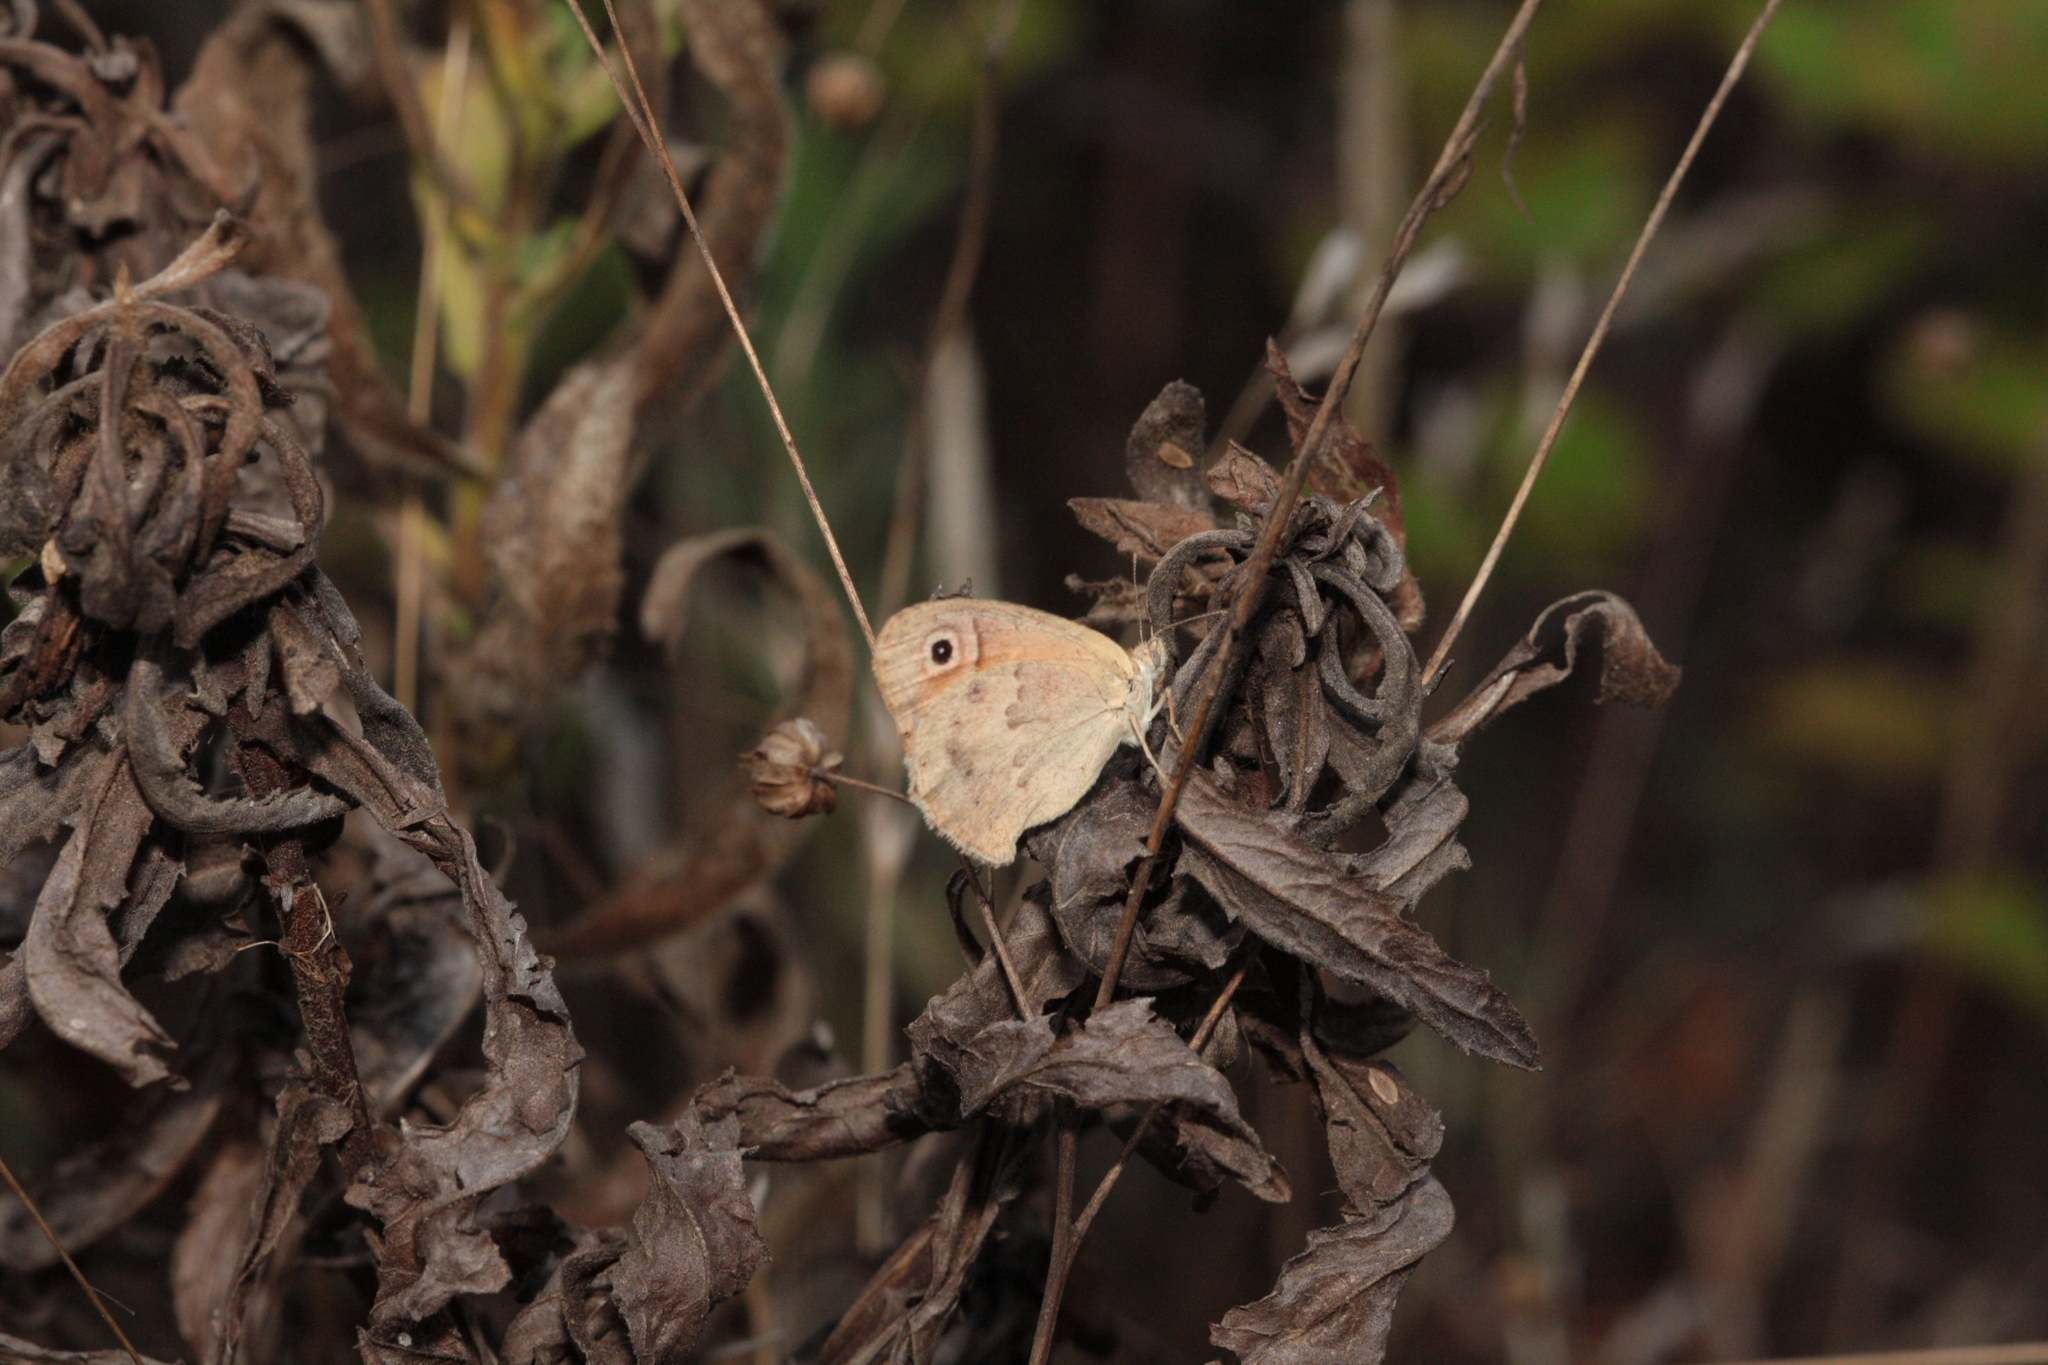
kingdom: Animalia
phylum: Arthropoda
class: Insecta
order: Lepidoptera
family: Nymphalidae
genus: Coenonympha
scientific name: Coenonympha pamphilus
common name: Small heath
